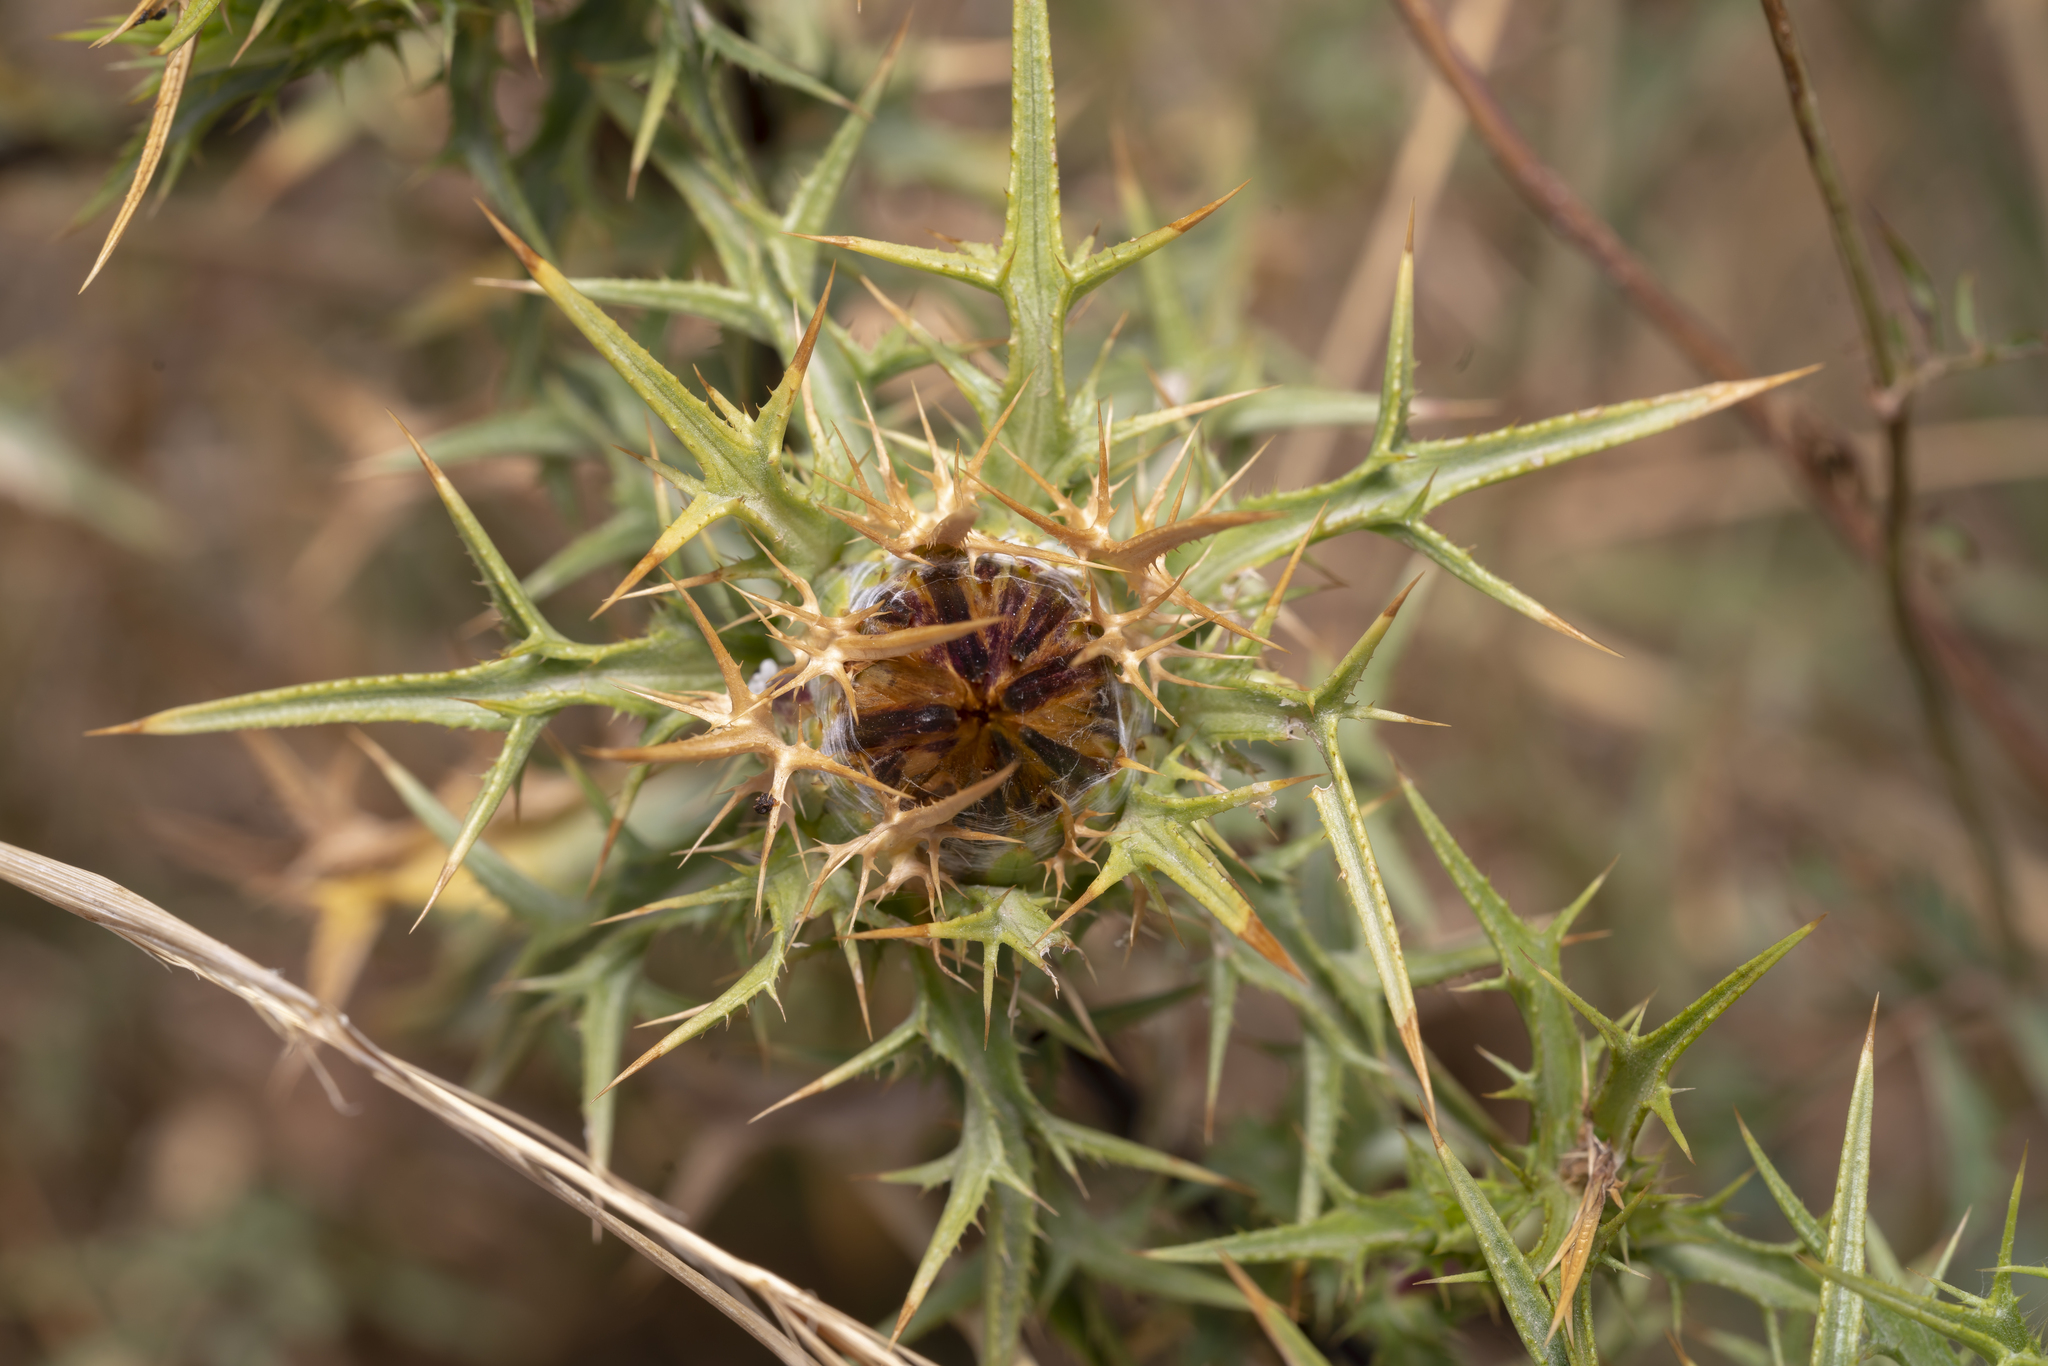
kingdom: Plantae
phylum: Tracheophyta
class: Magnoliopsida
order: Asterales
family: Asteraceae
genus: Carlina
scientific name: Carlina graeca
